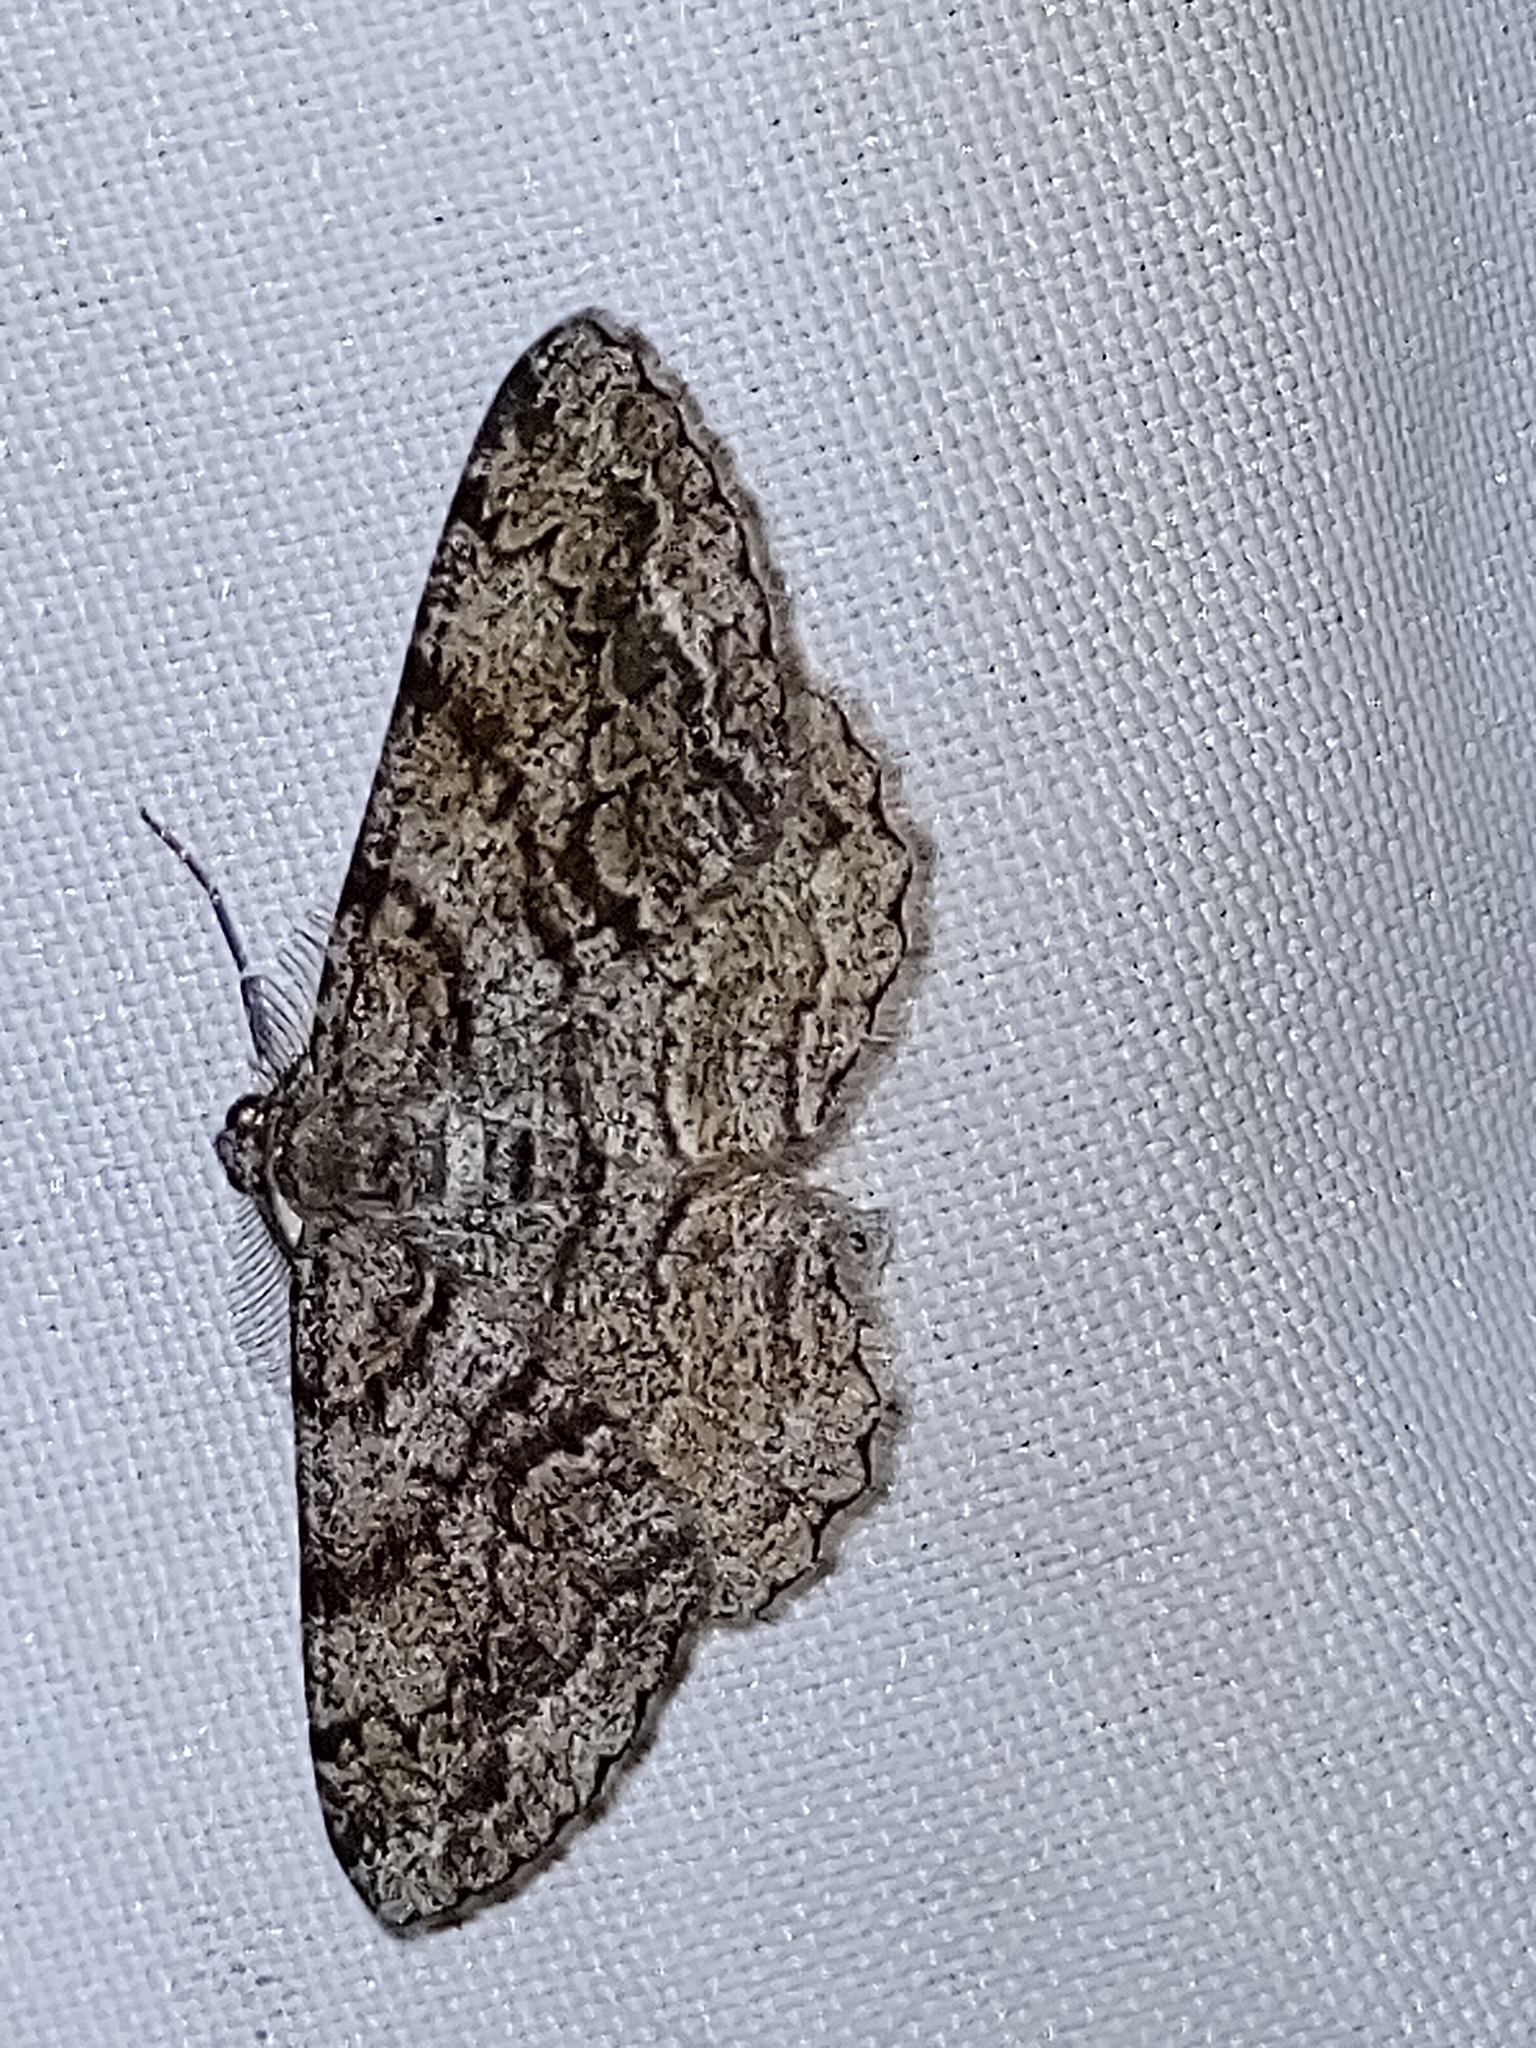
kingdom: Animalia
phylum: Arthropoda
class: Insecta
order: Lepidoptera
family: Geometridae
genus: Peribatodes
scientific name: Peribatodes secundaria
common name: Feathered beauty
